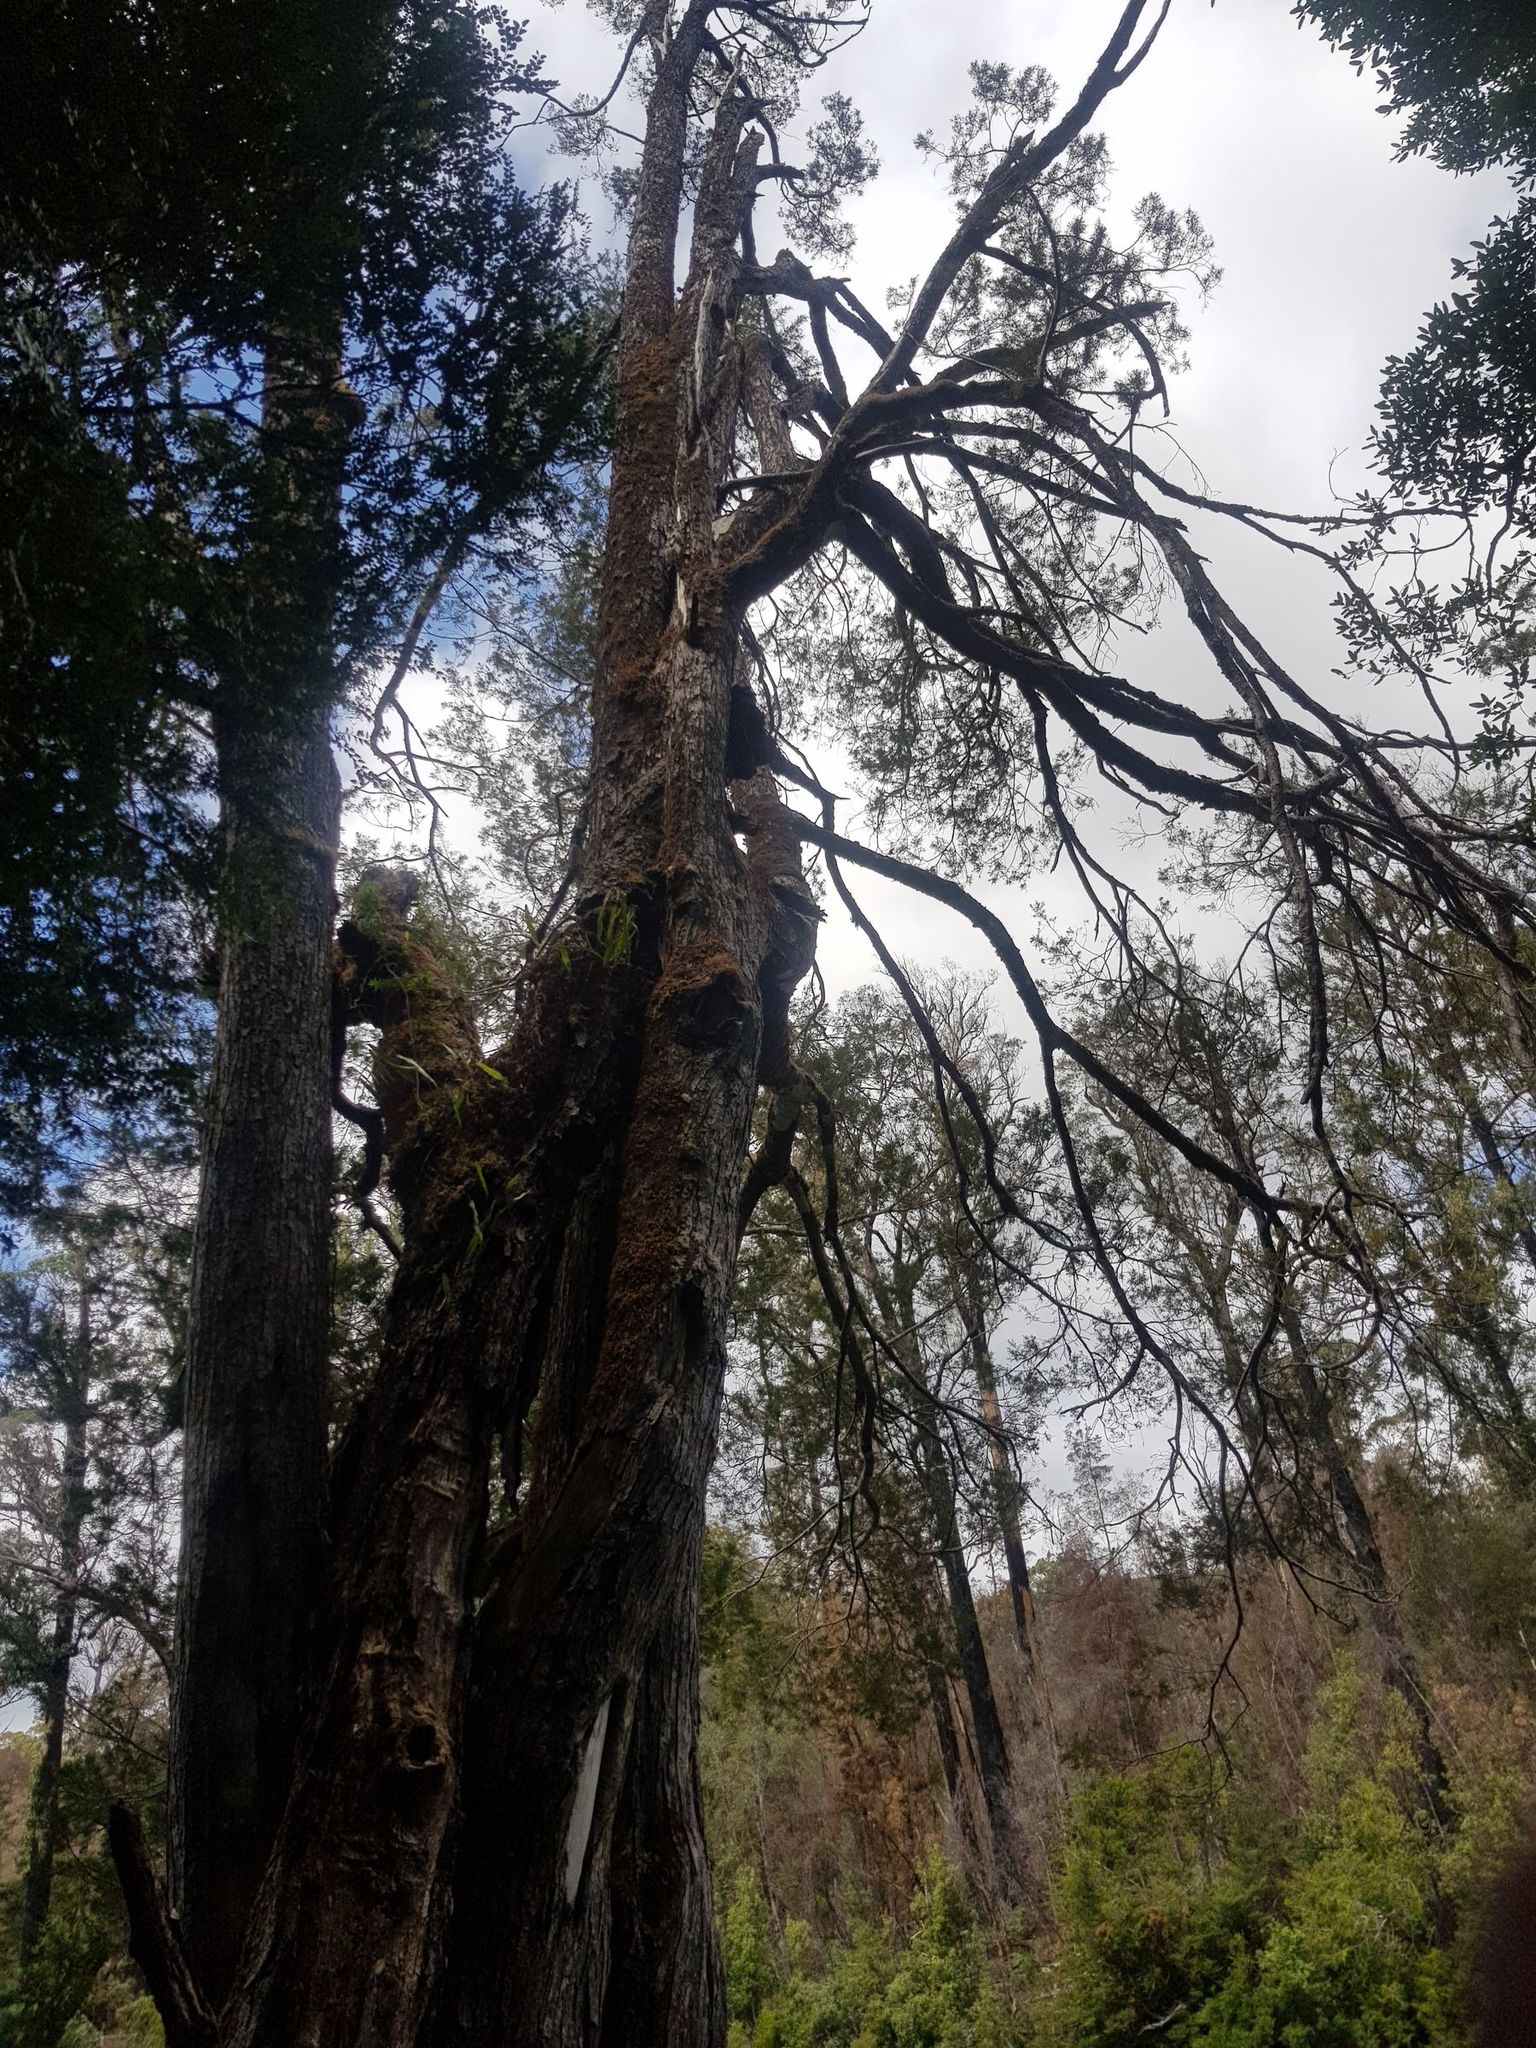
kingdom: Plantae
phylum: Tracheophyta
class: Pinopsida
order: Pinales
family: Podocarpaceae
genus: Lagarostrobos
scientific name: Lagarostrobos franklinii
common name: Huon pine
